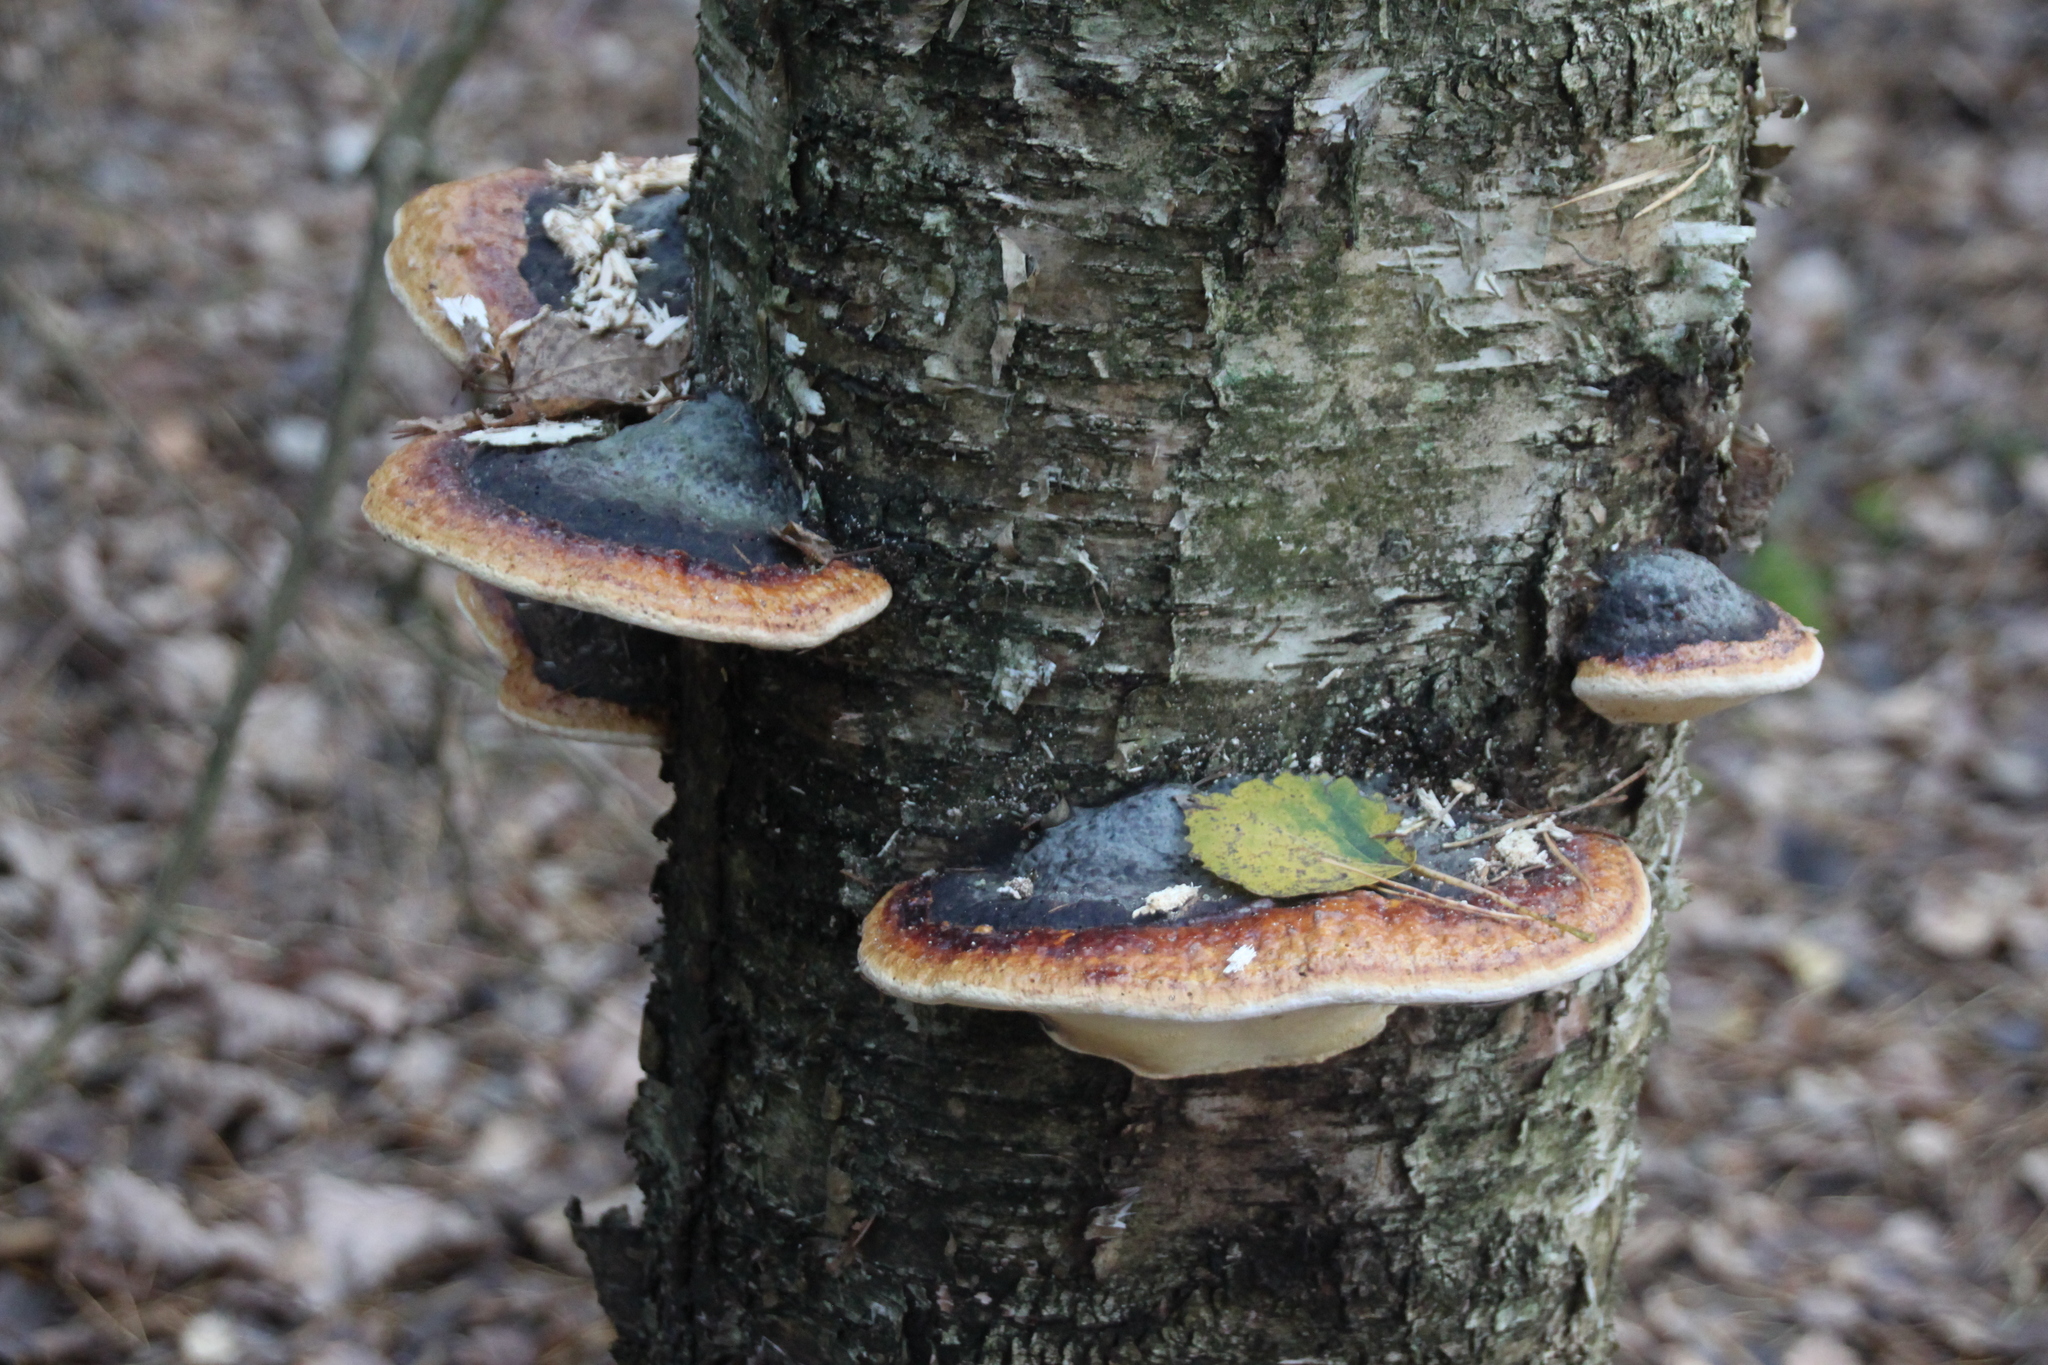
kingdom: Fungi
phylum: Basidiomycota
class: Agaricomycetes
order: Polyporales
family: Fomitopsidaceae
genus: Fomitopsis
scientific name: Fomitopsis pinicola
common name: Red-belted bracket
